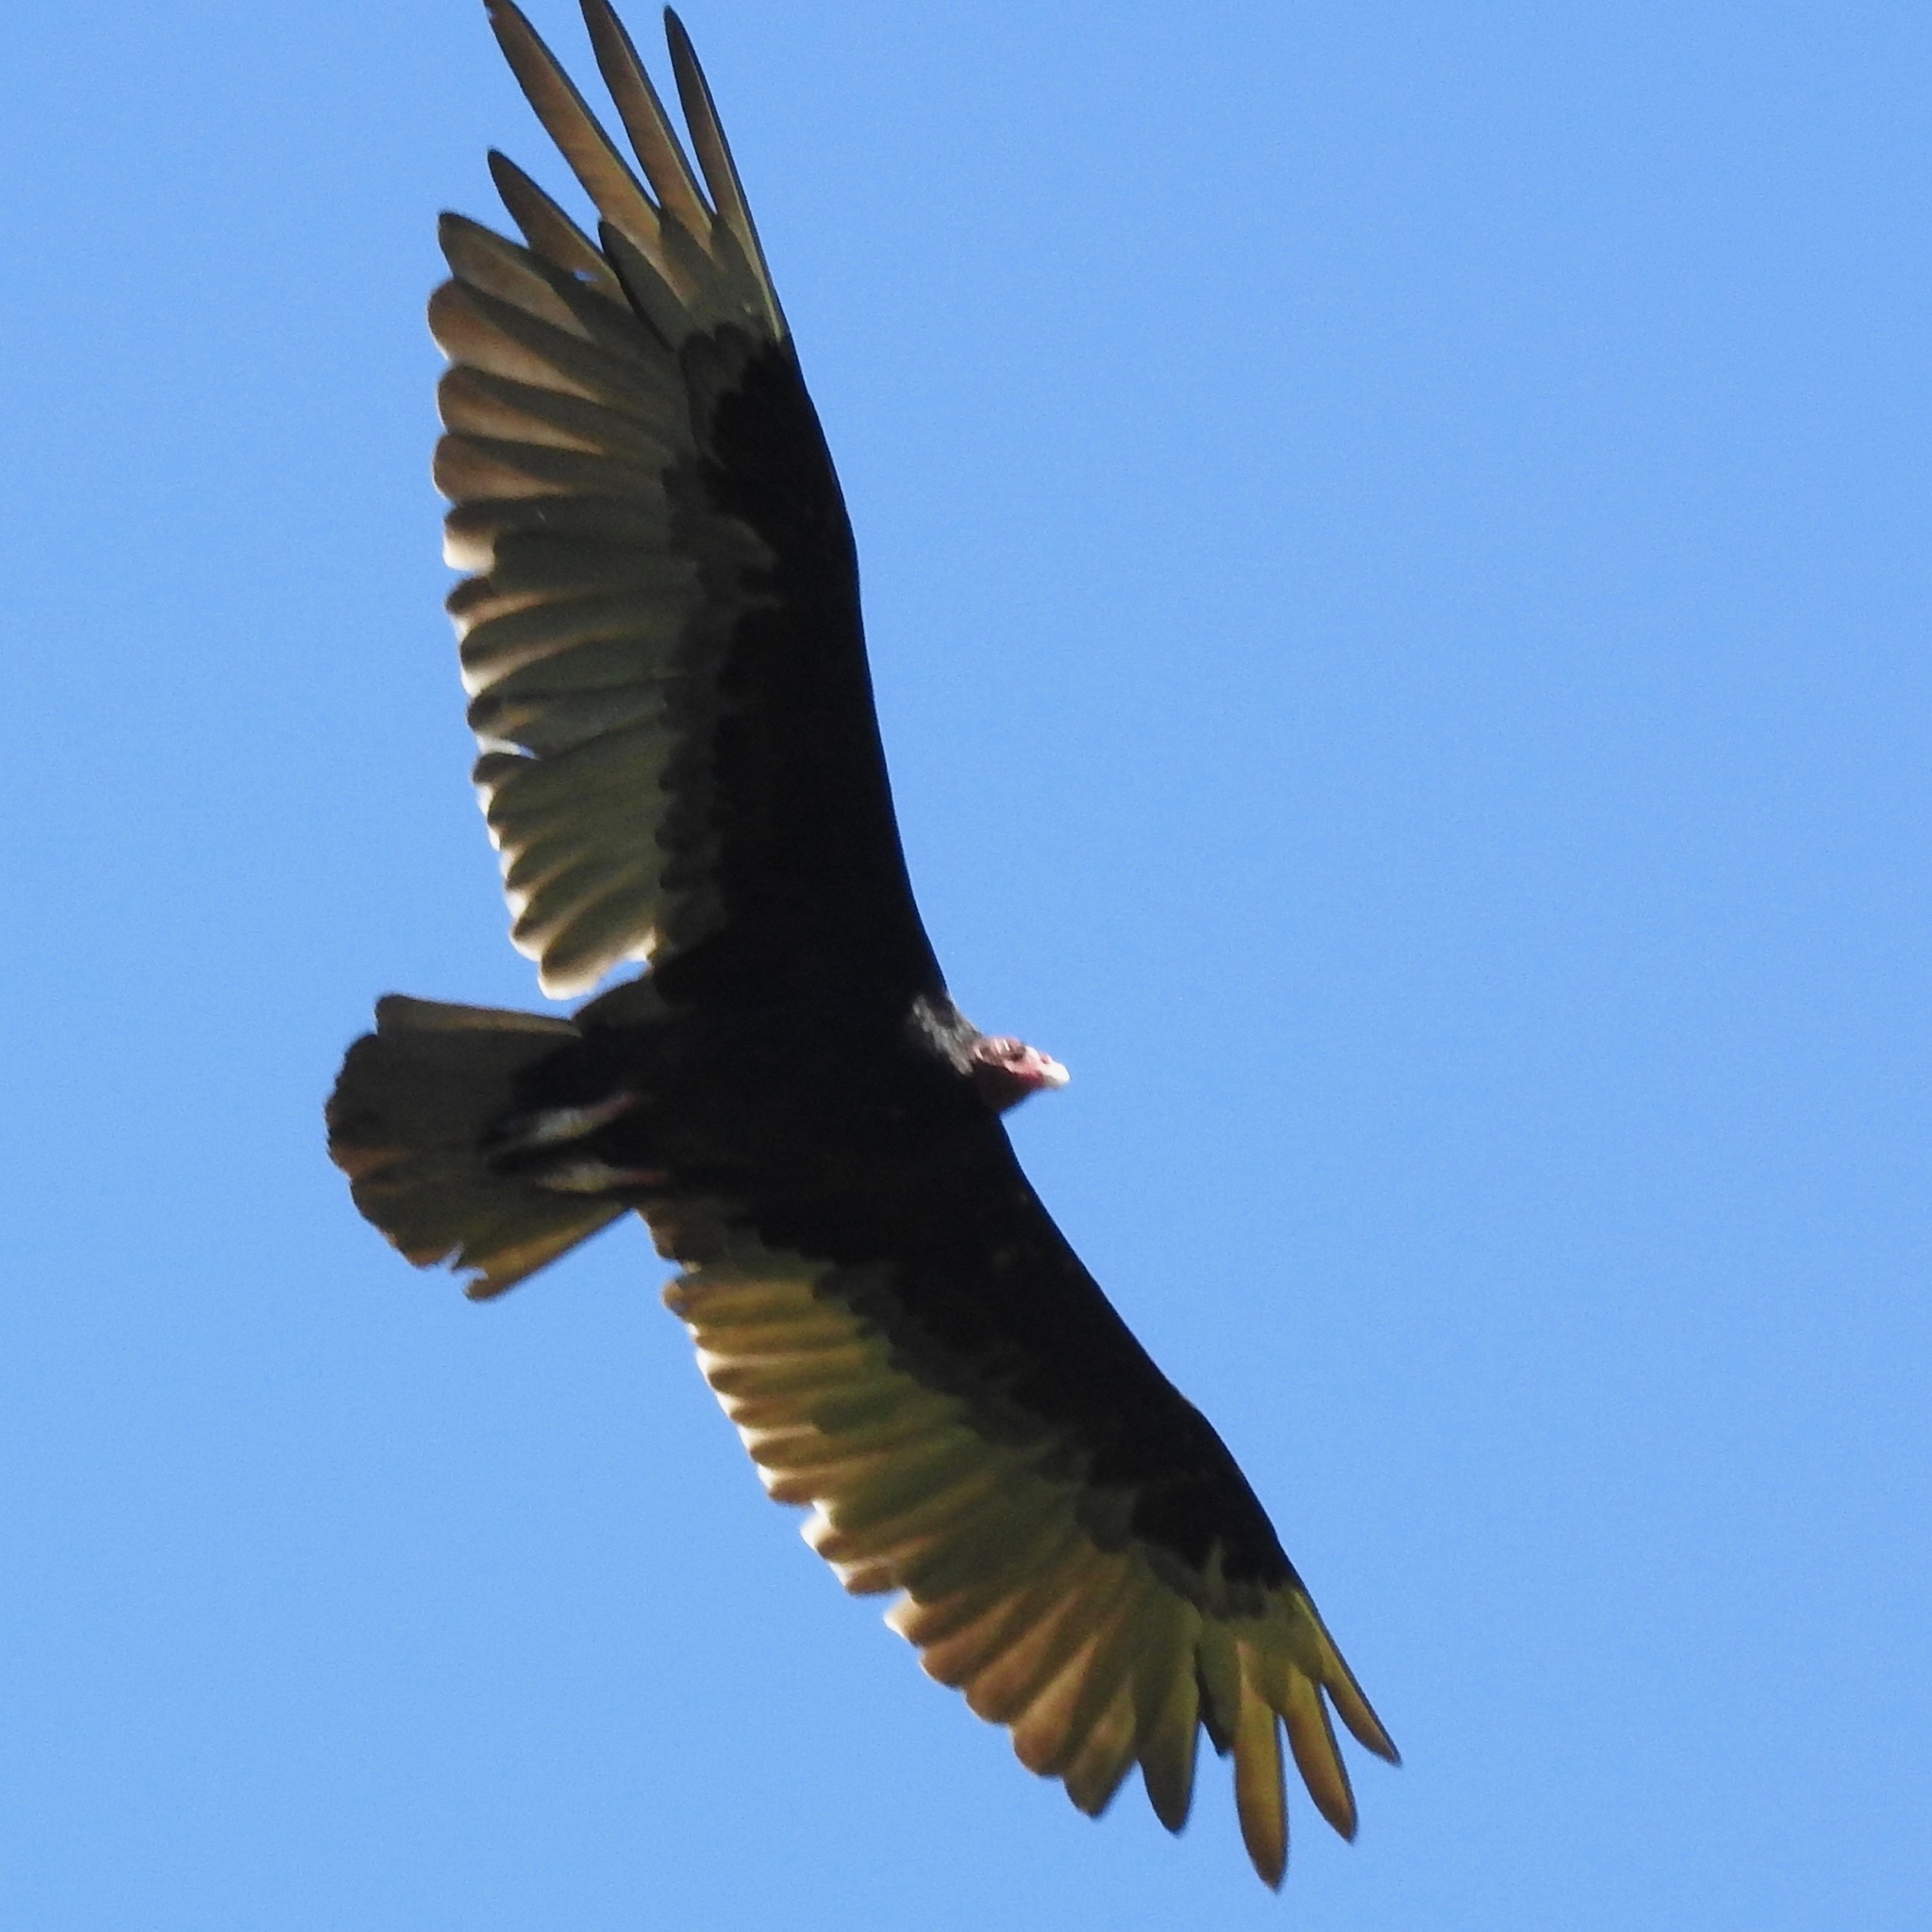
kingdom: Animalia
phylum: Chordata
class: Aves
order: Accipitriformes
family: Cathartidae
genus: Cathartes
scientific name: Cathartes aura
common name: Turkey vulture
